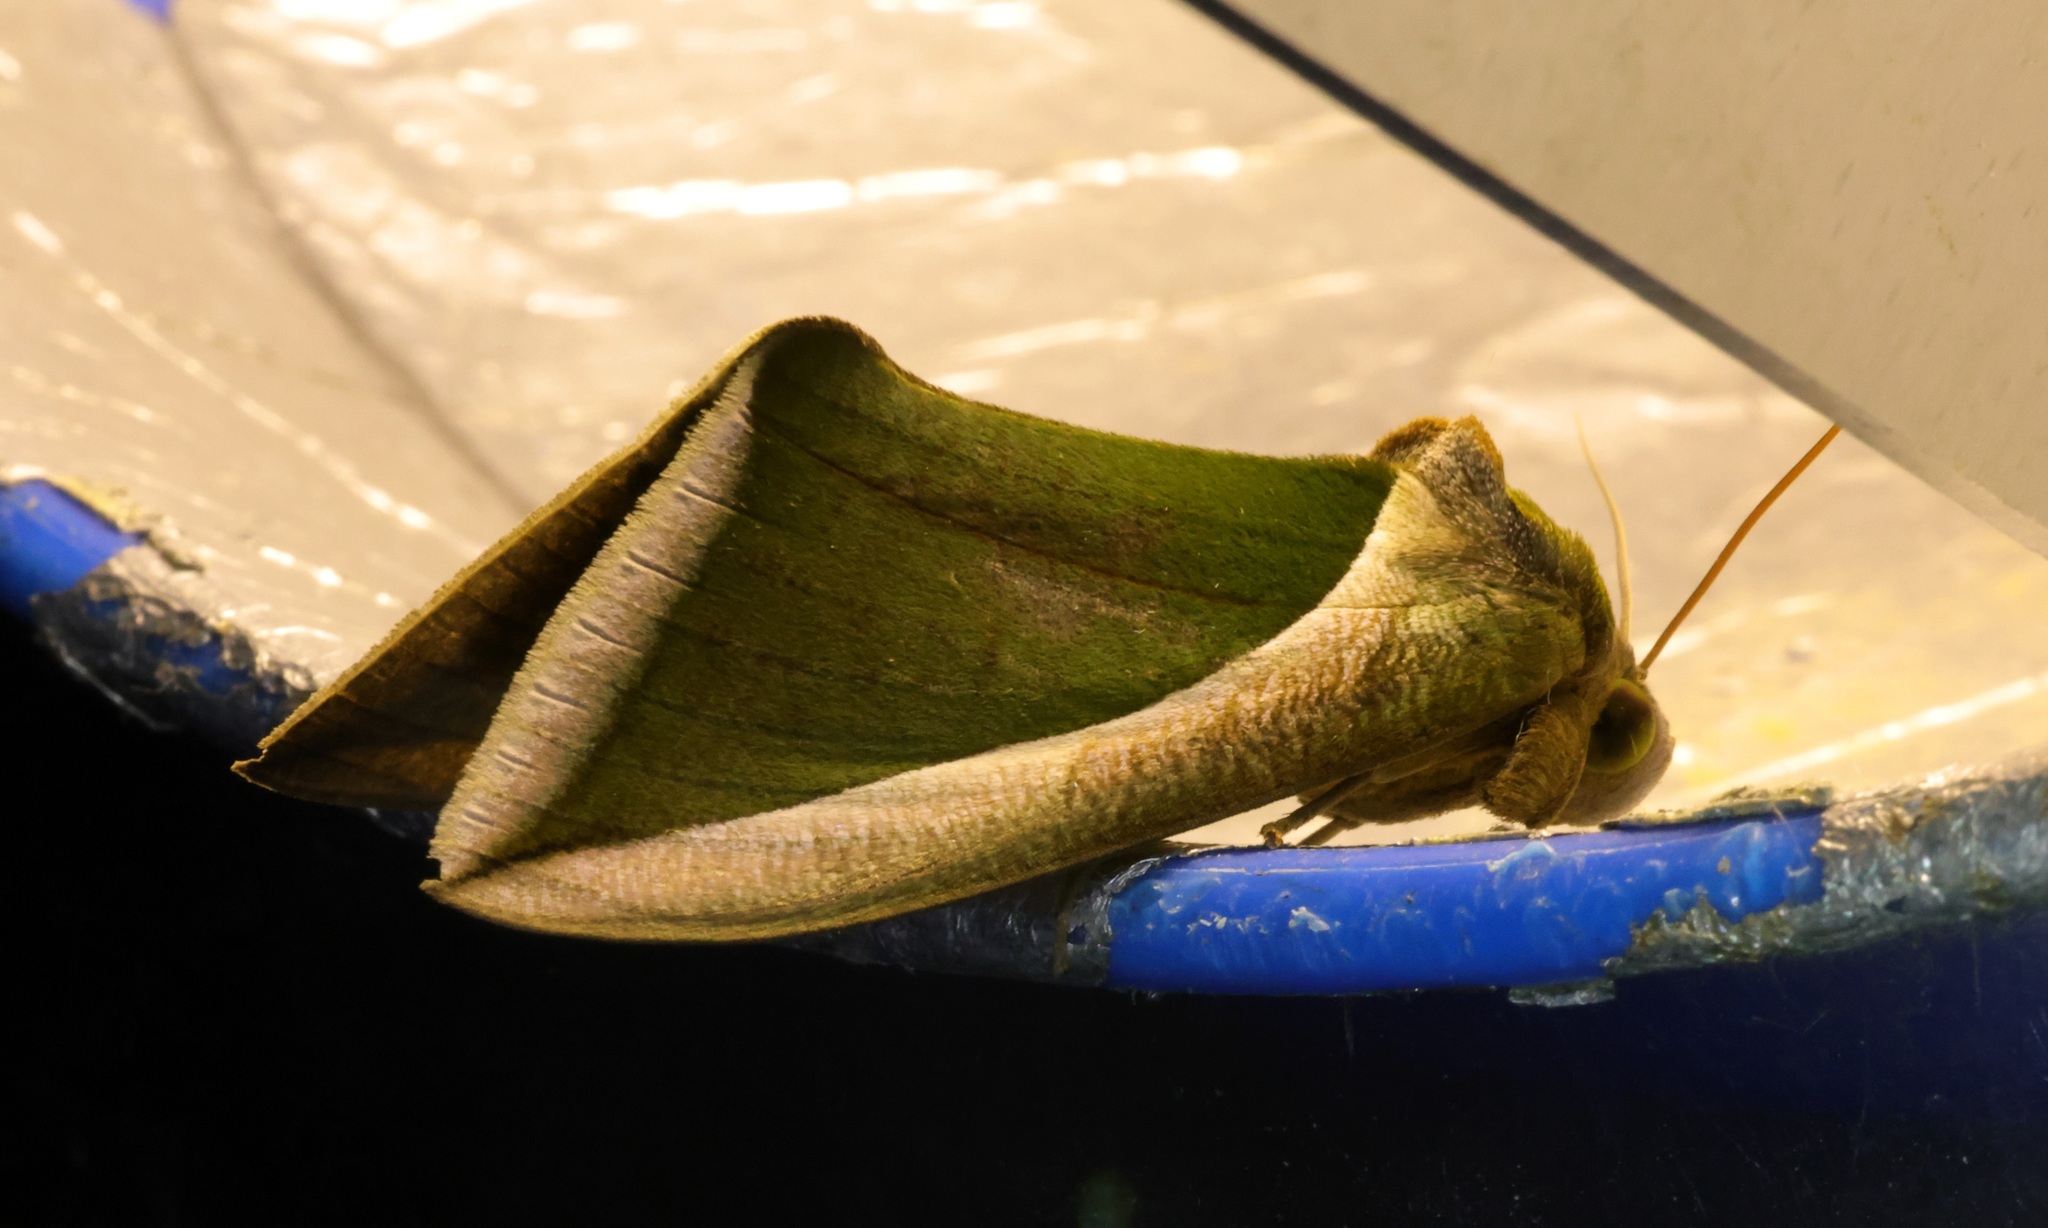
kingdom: Animalia
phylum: Arthropoda
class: Insecta
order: Lepidoptera
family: Erebidae
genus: Eudocima
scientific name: Eudocima salaminia
